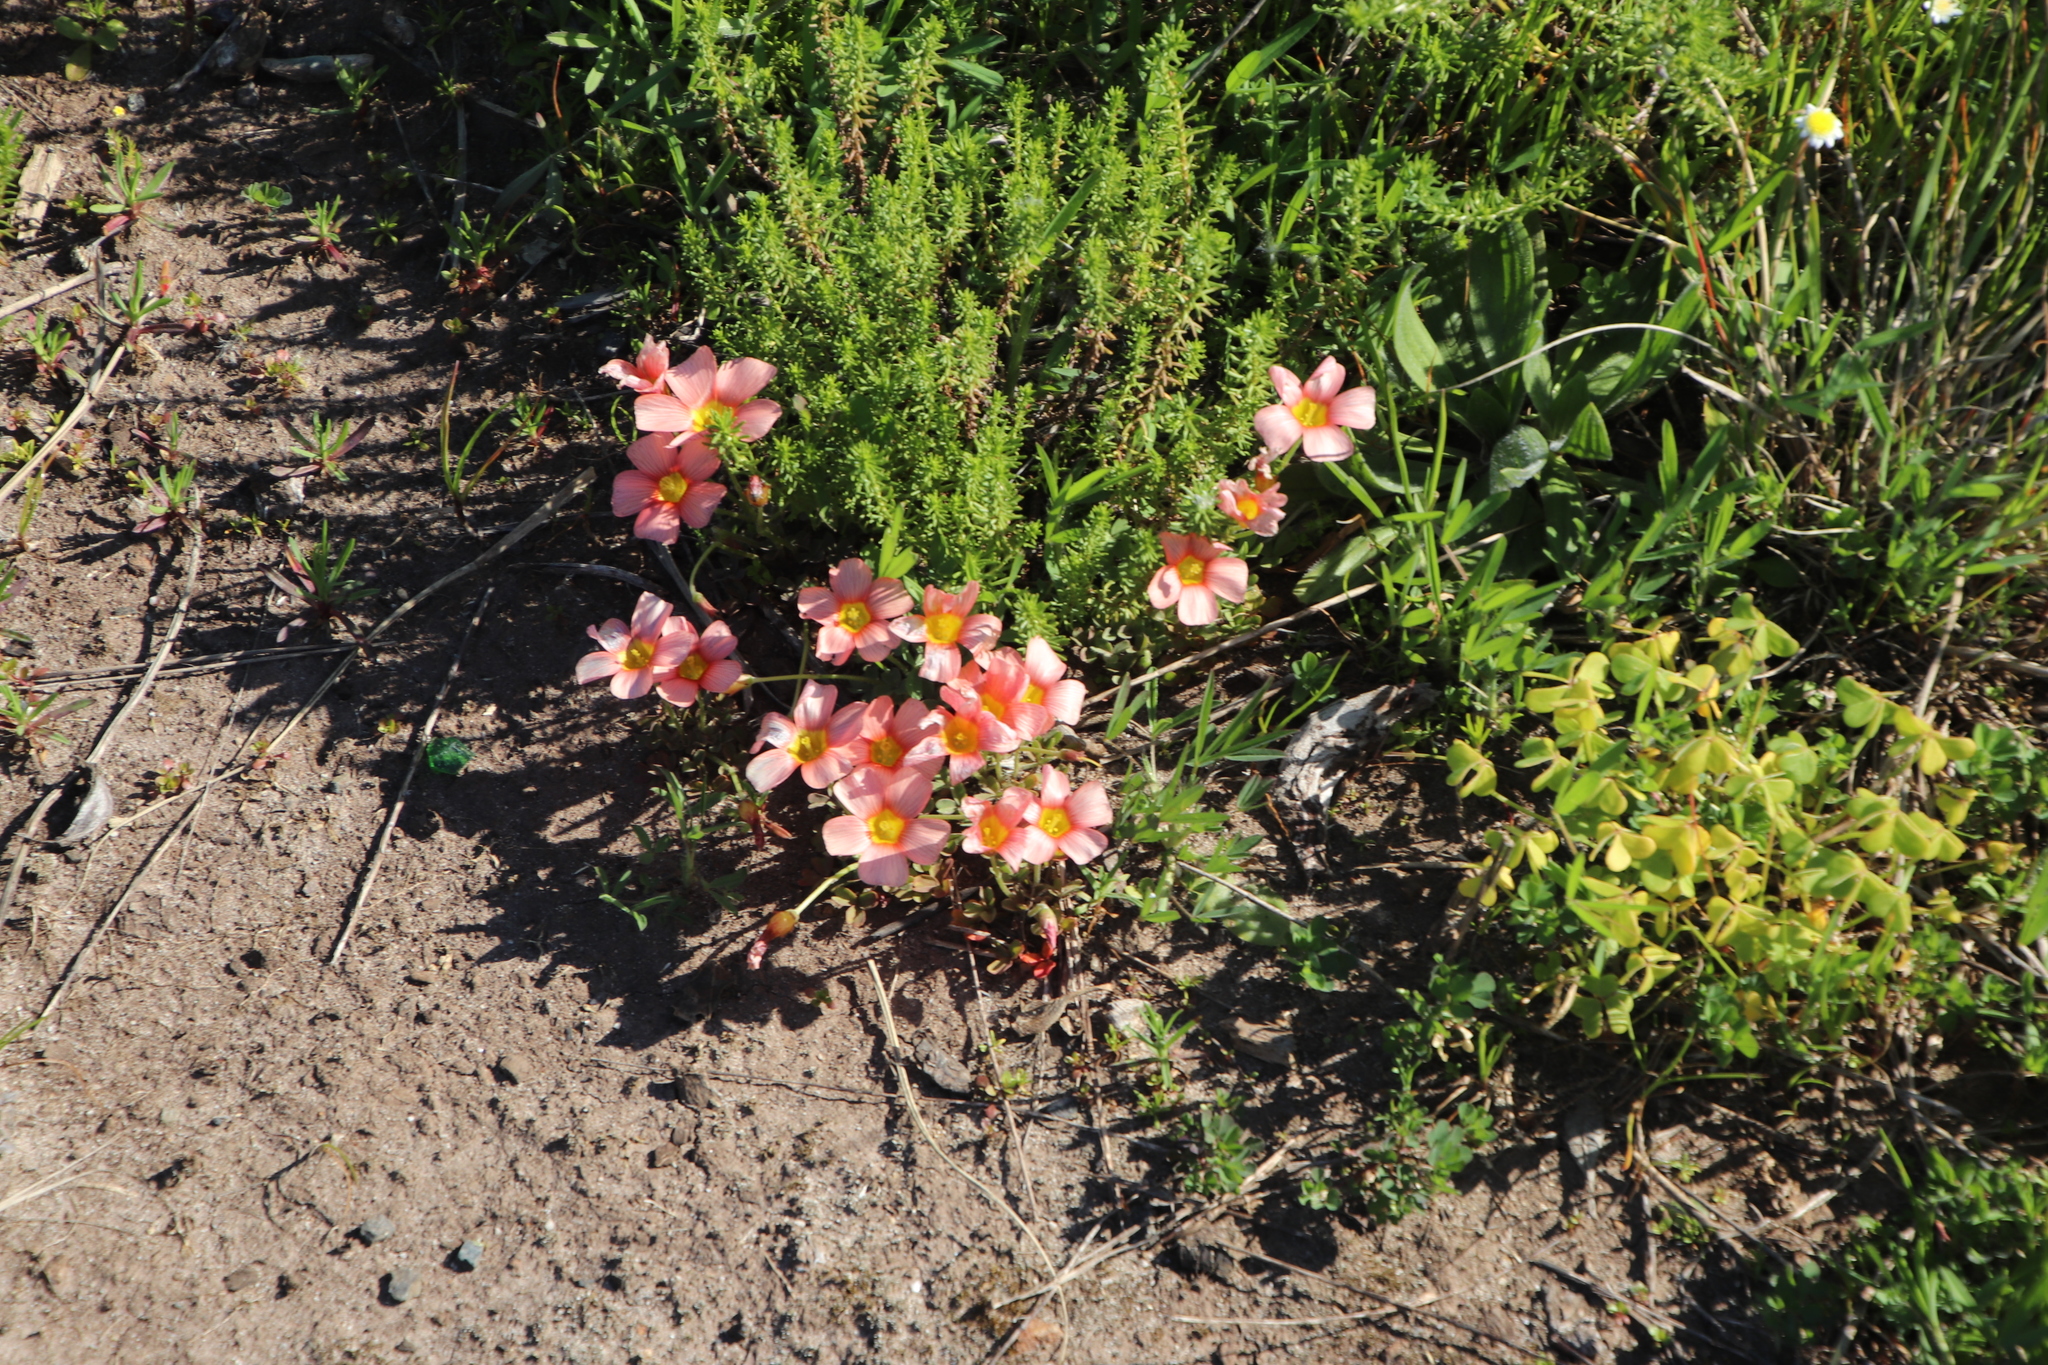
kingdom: Plantae
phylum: Tracheophyta
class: Magnoliopsida
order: Oxalidales
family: Oxalidaceae
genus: Oxalis
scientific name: Oxalis obtusa
